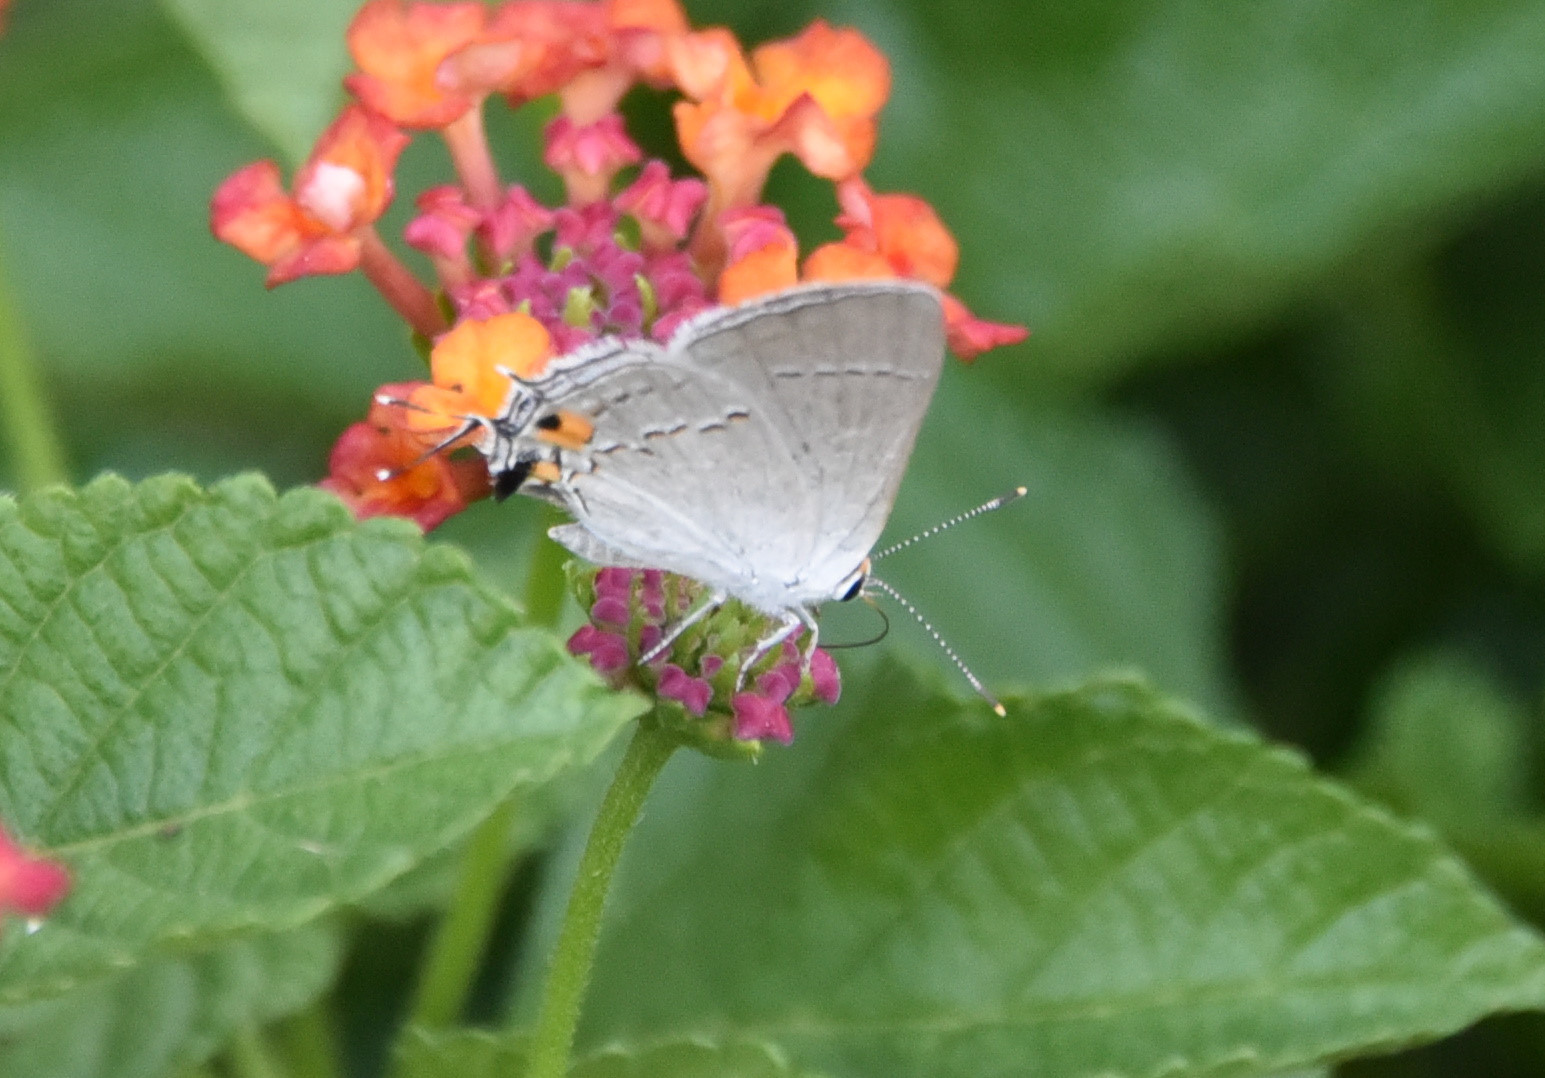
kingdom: Animalia
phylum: Arthropoda
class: Insecta
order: Lepidoptera
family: Lycaenidae
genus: Strymon
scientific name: Strymon melinus
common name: Gray hairstreak
